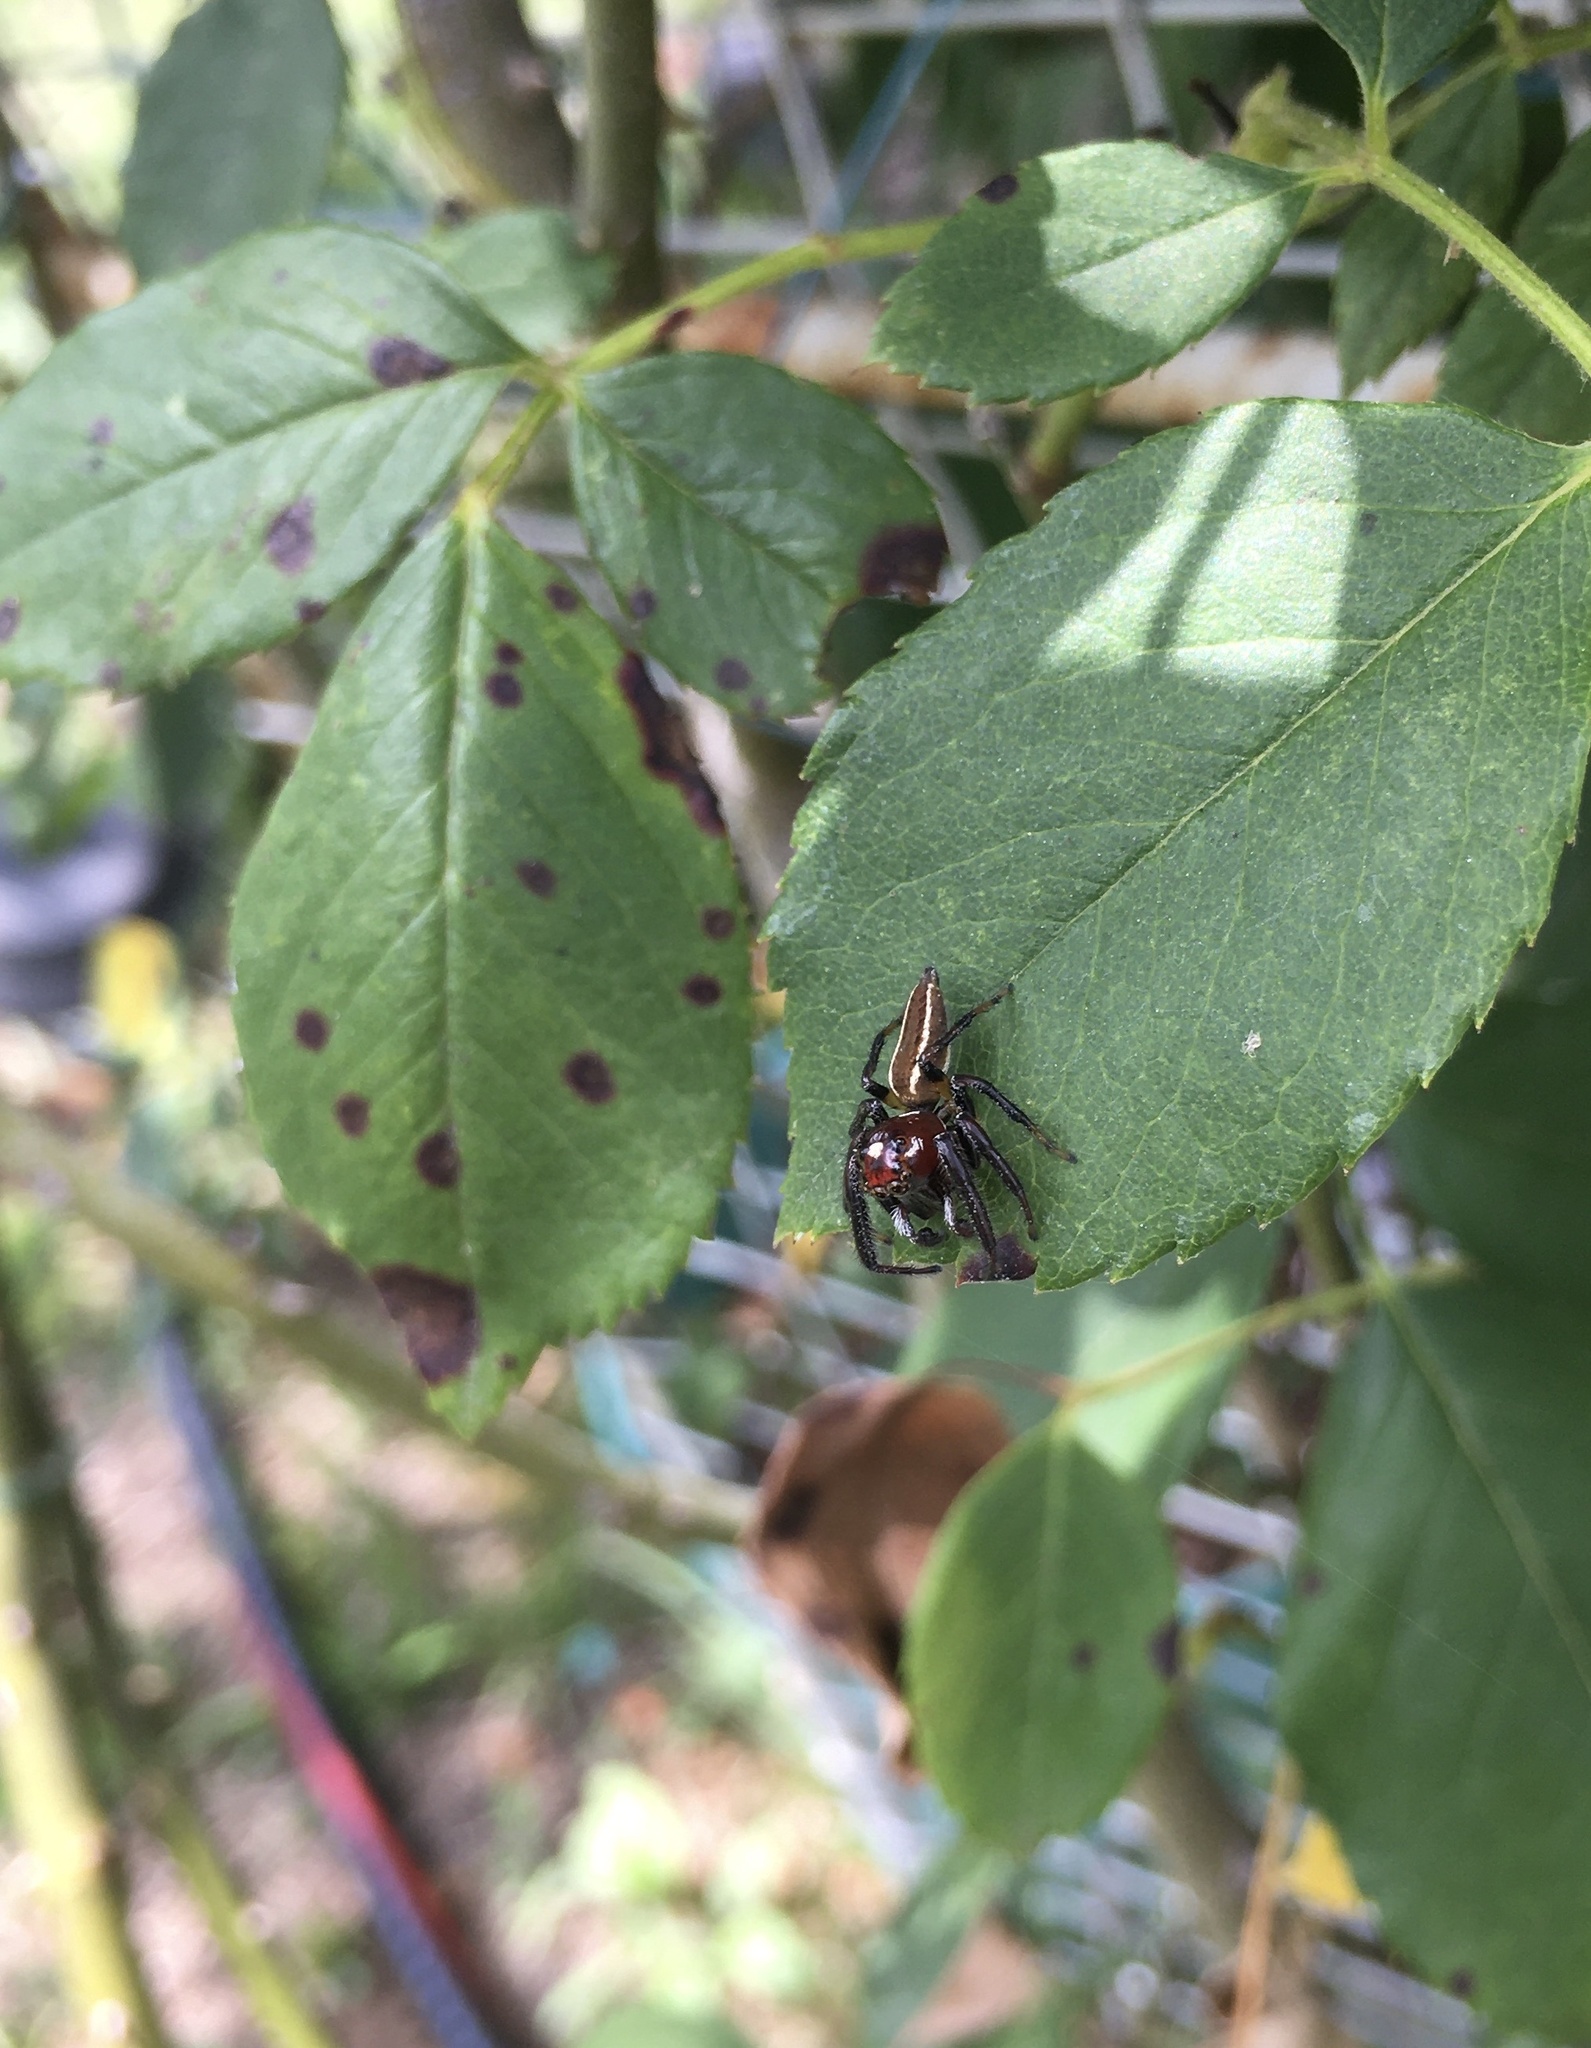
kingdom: Animalia
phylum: Arthropoda
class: Arachnida
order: Araneae
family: Salticidae
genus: Colonus
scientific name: Colonus sylvanus
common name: Jumping spiders
